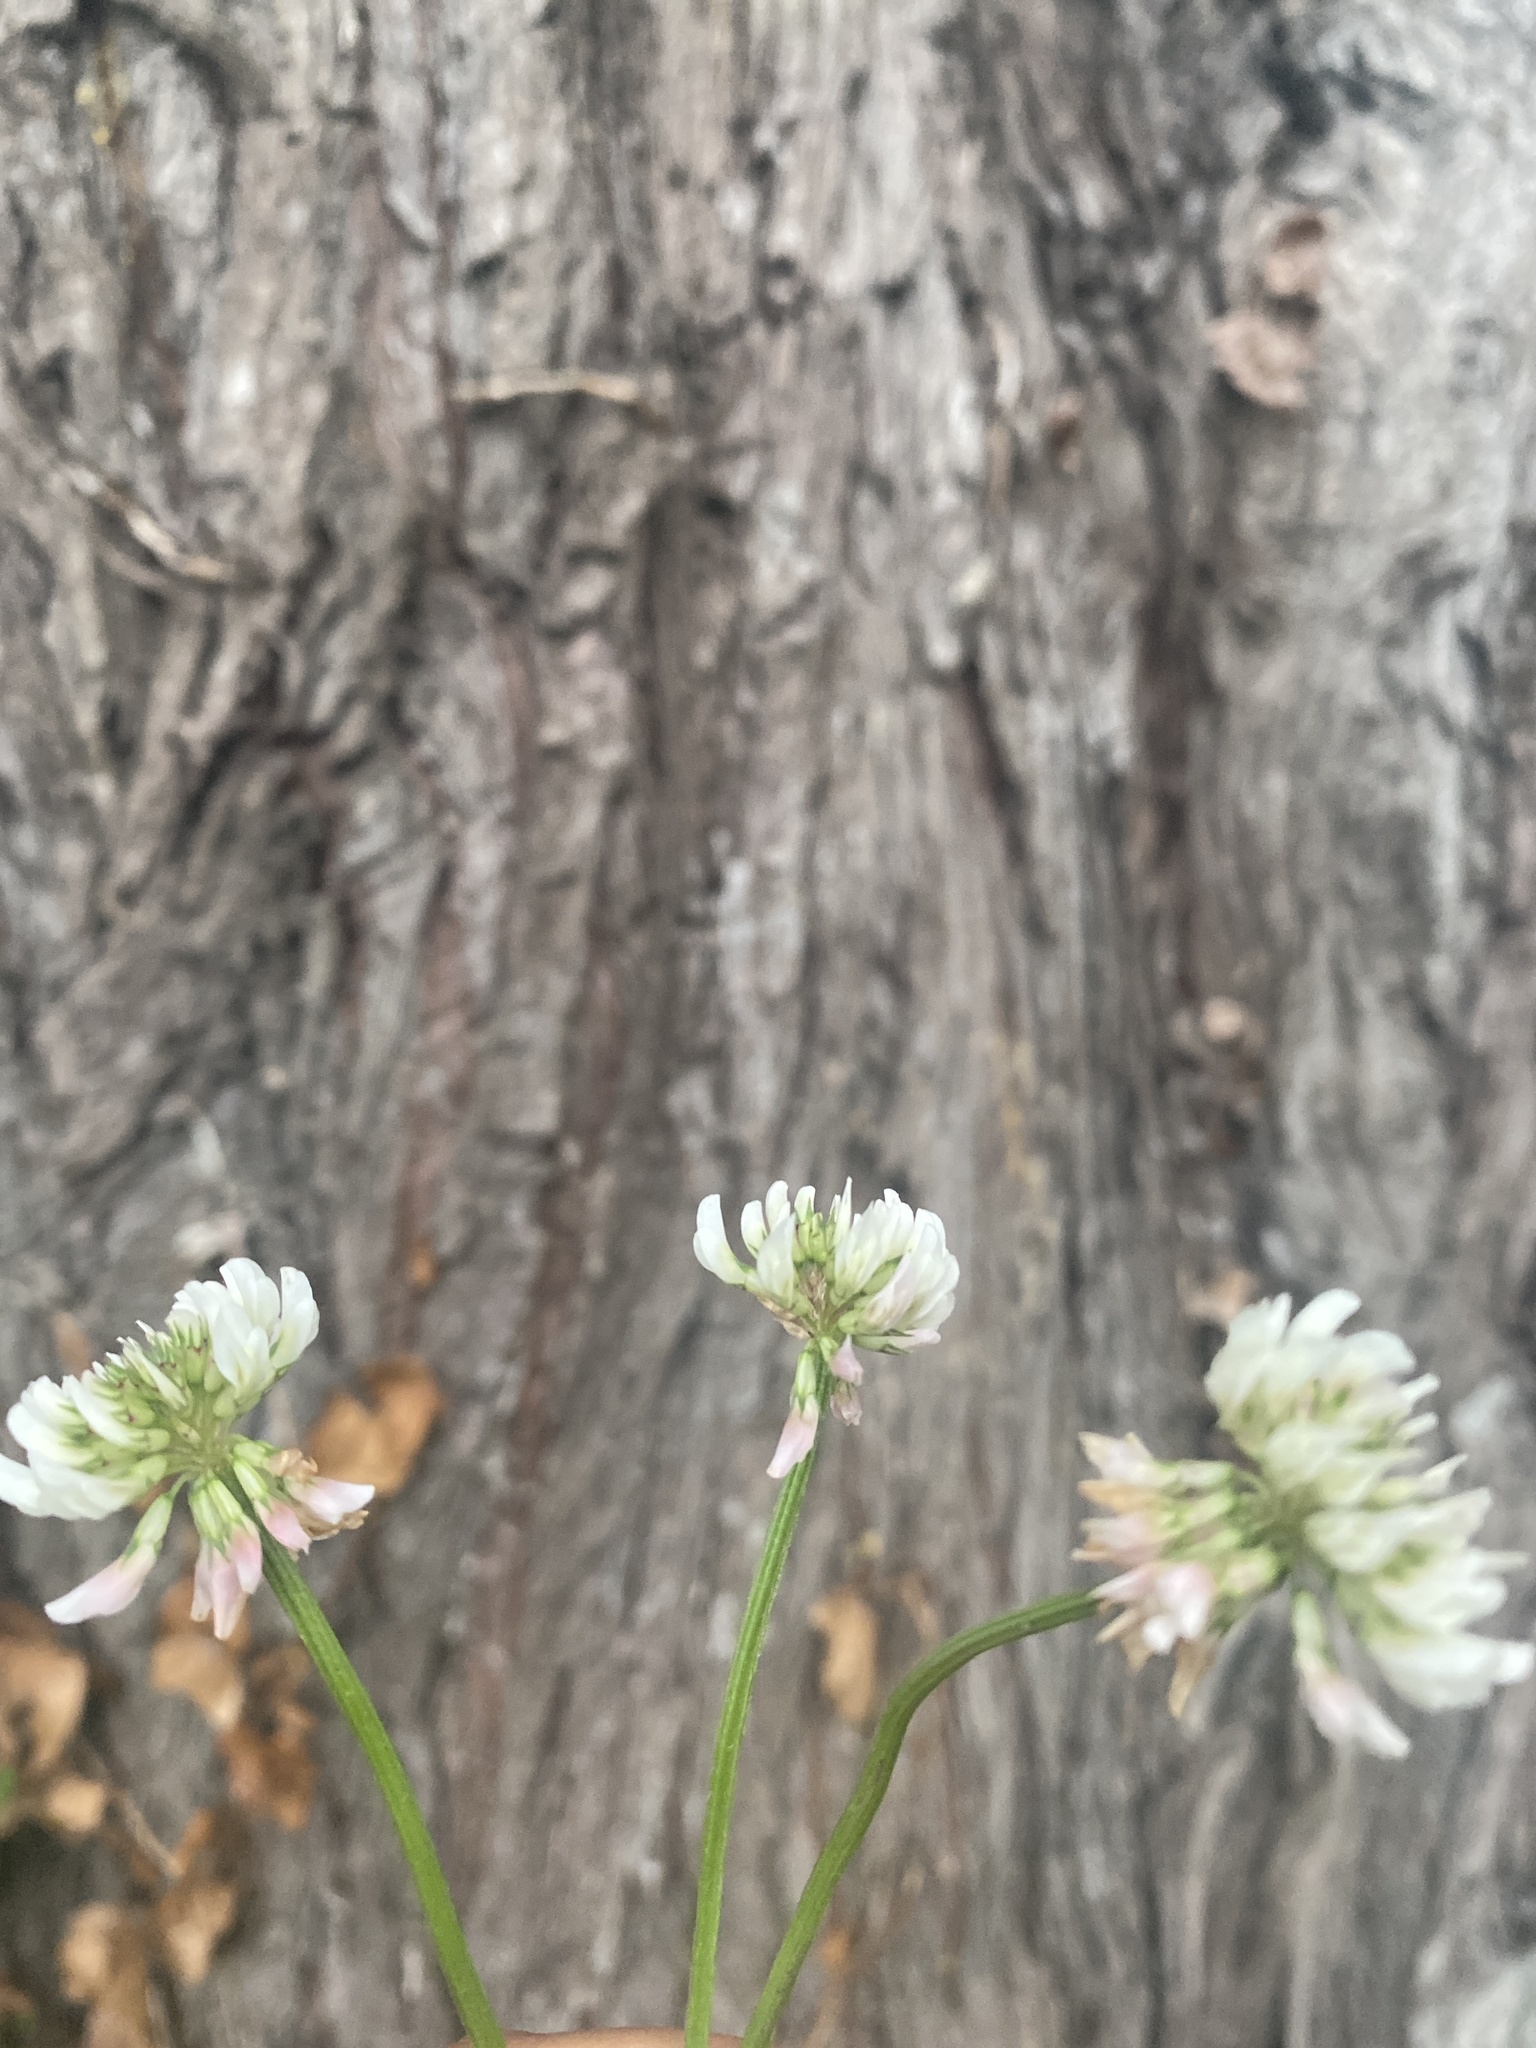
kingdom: Plantae
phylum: Tracheophyta
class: Magnoliopsida
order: Fabales
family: Fabaceae
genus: Trifolium
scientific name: Trifolium repens
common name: White clover
